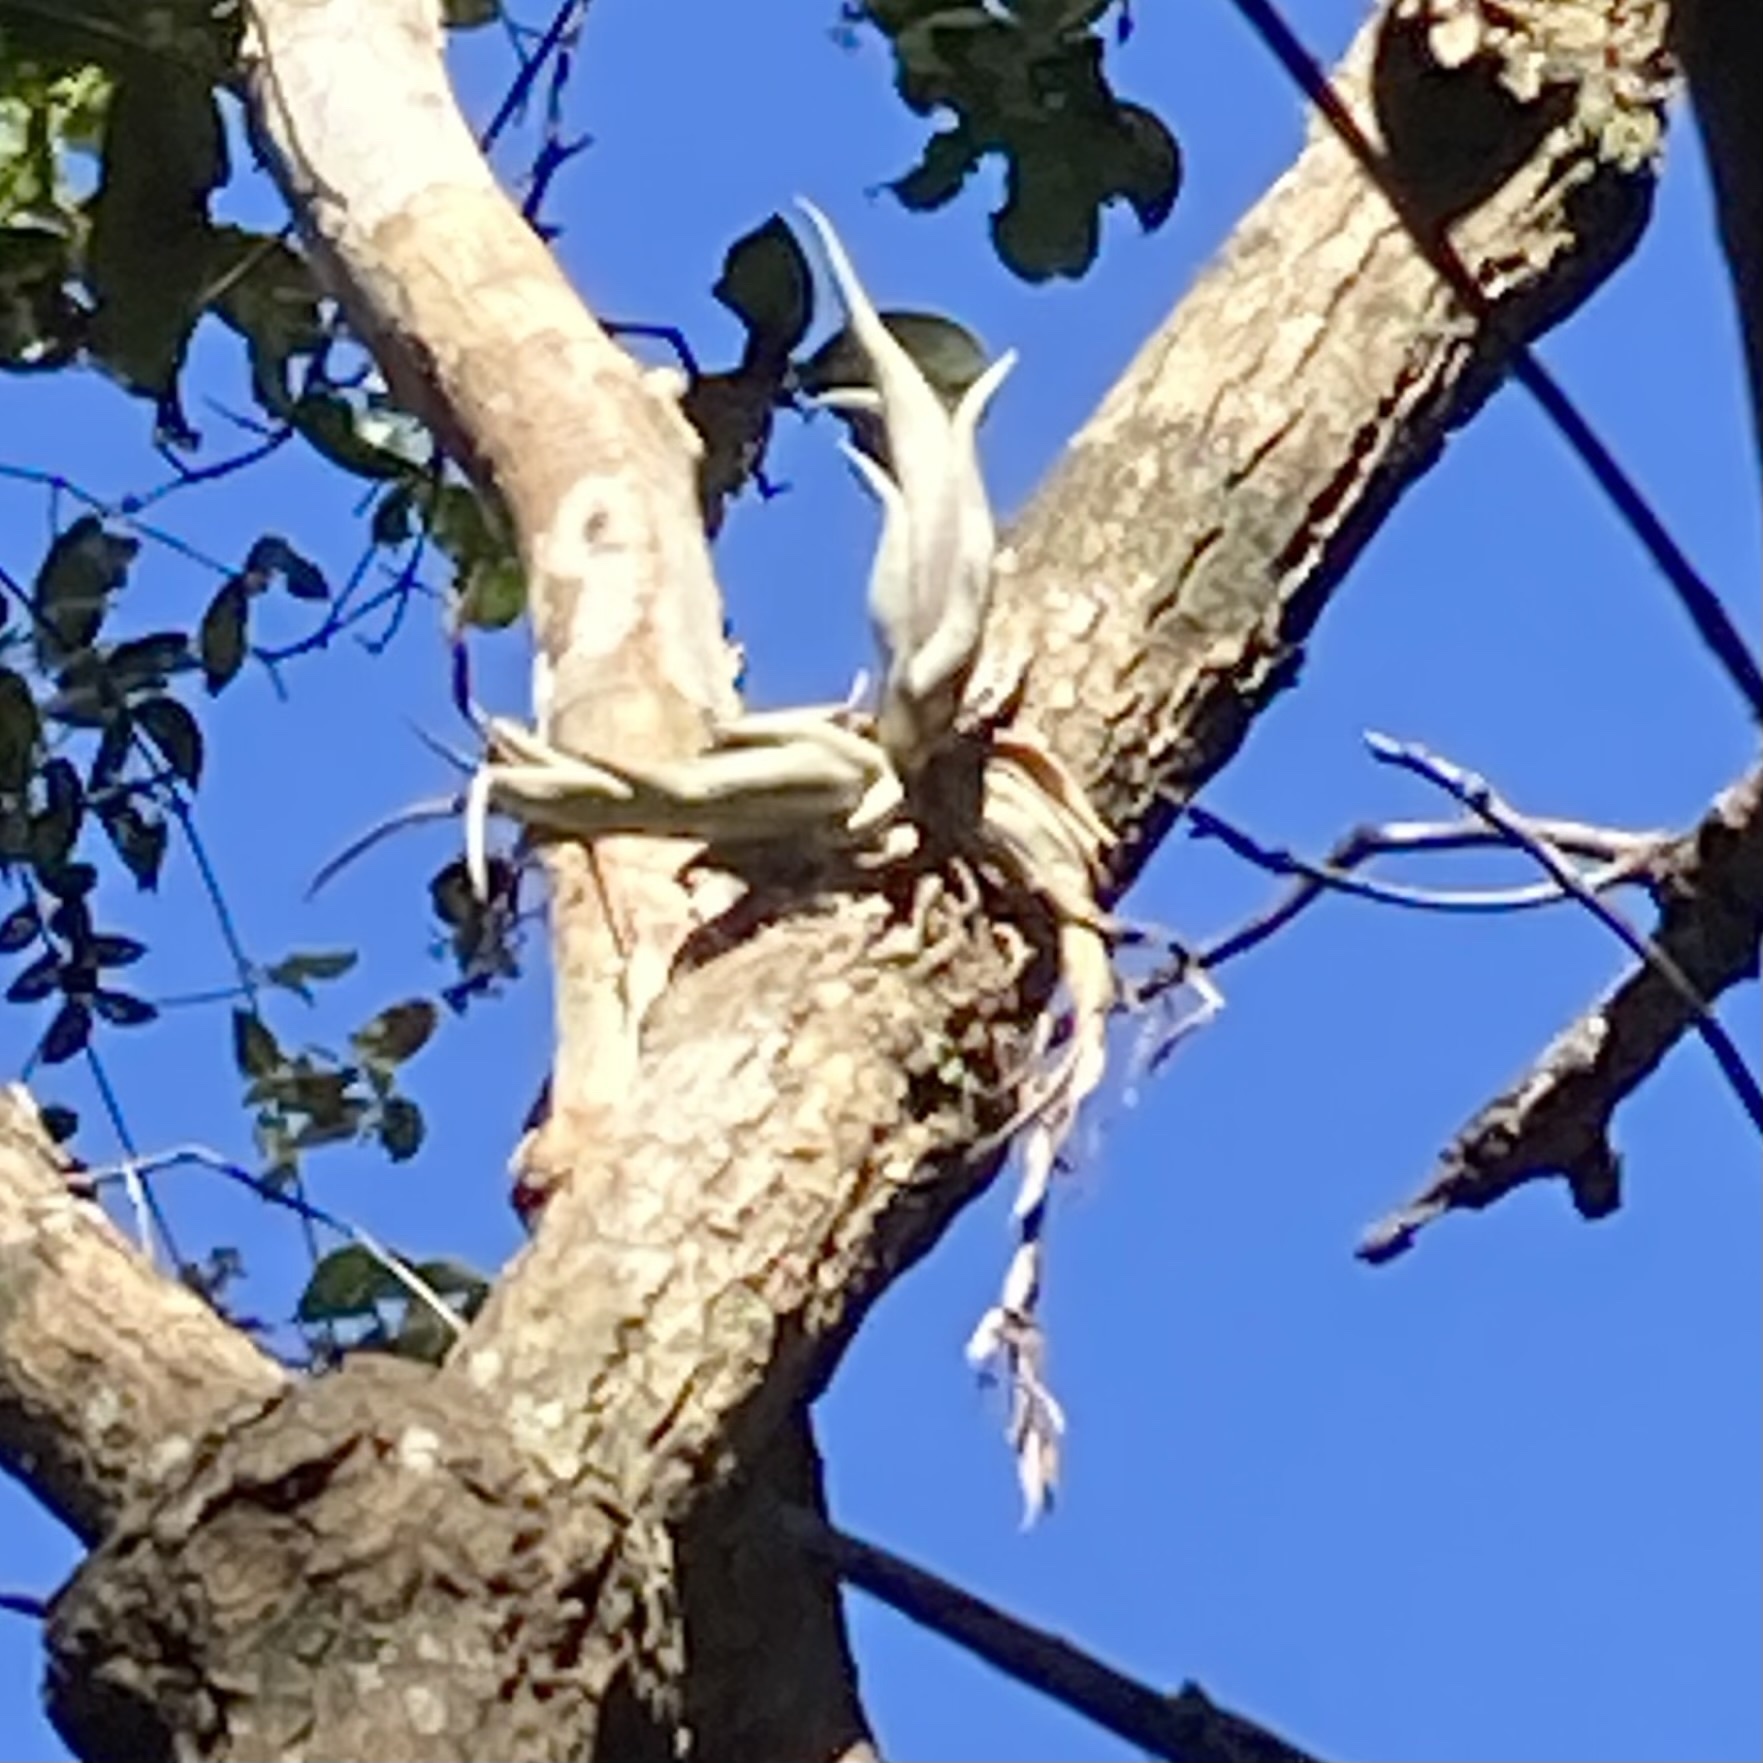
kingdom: Plantae
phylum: Tracheophyta
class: Liliopsida
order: Poales
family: Bromeliaceae
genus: Tillandsia
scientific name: Tillandsia paucifolia
